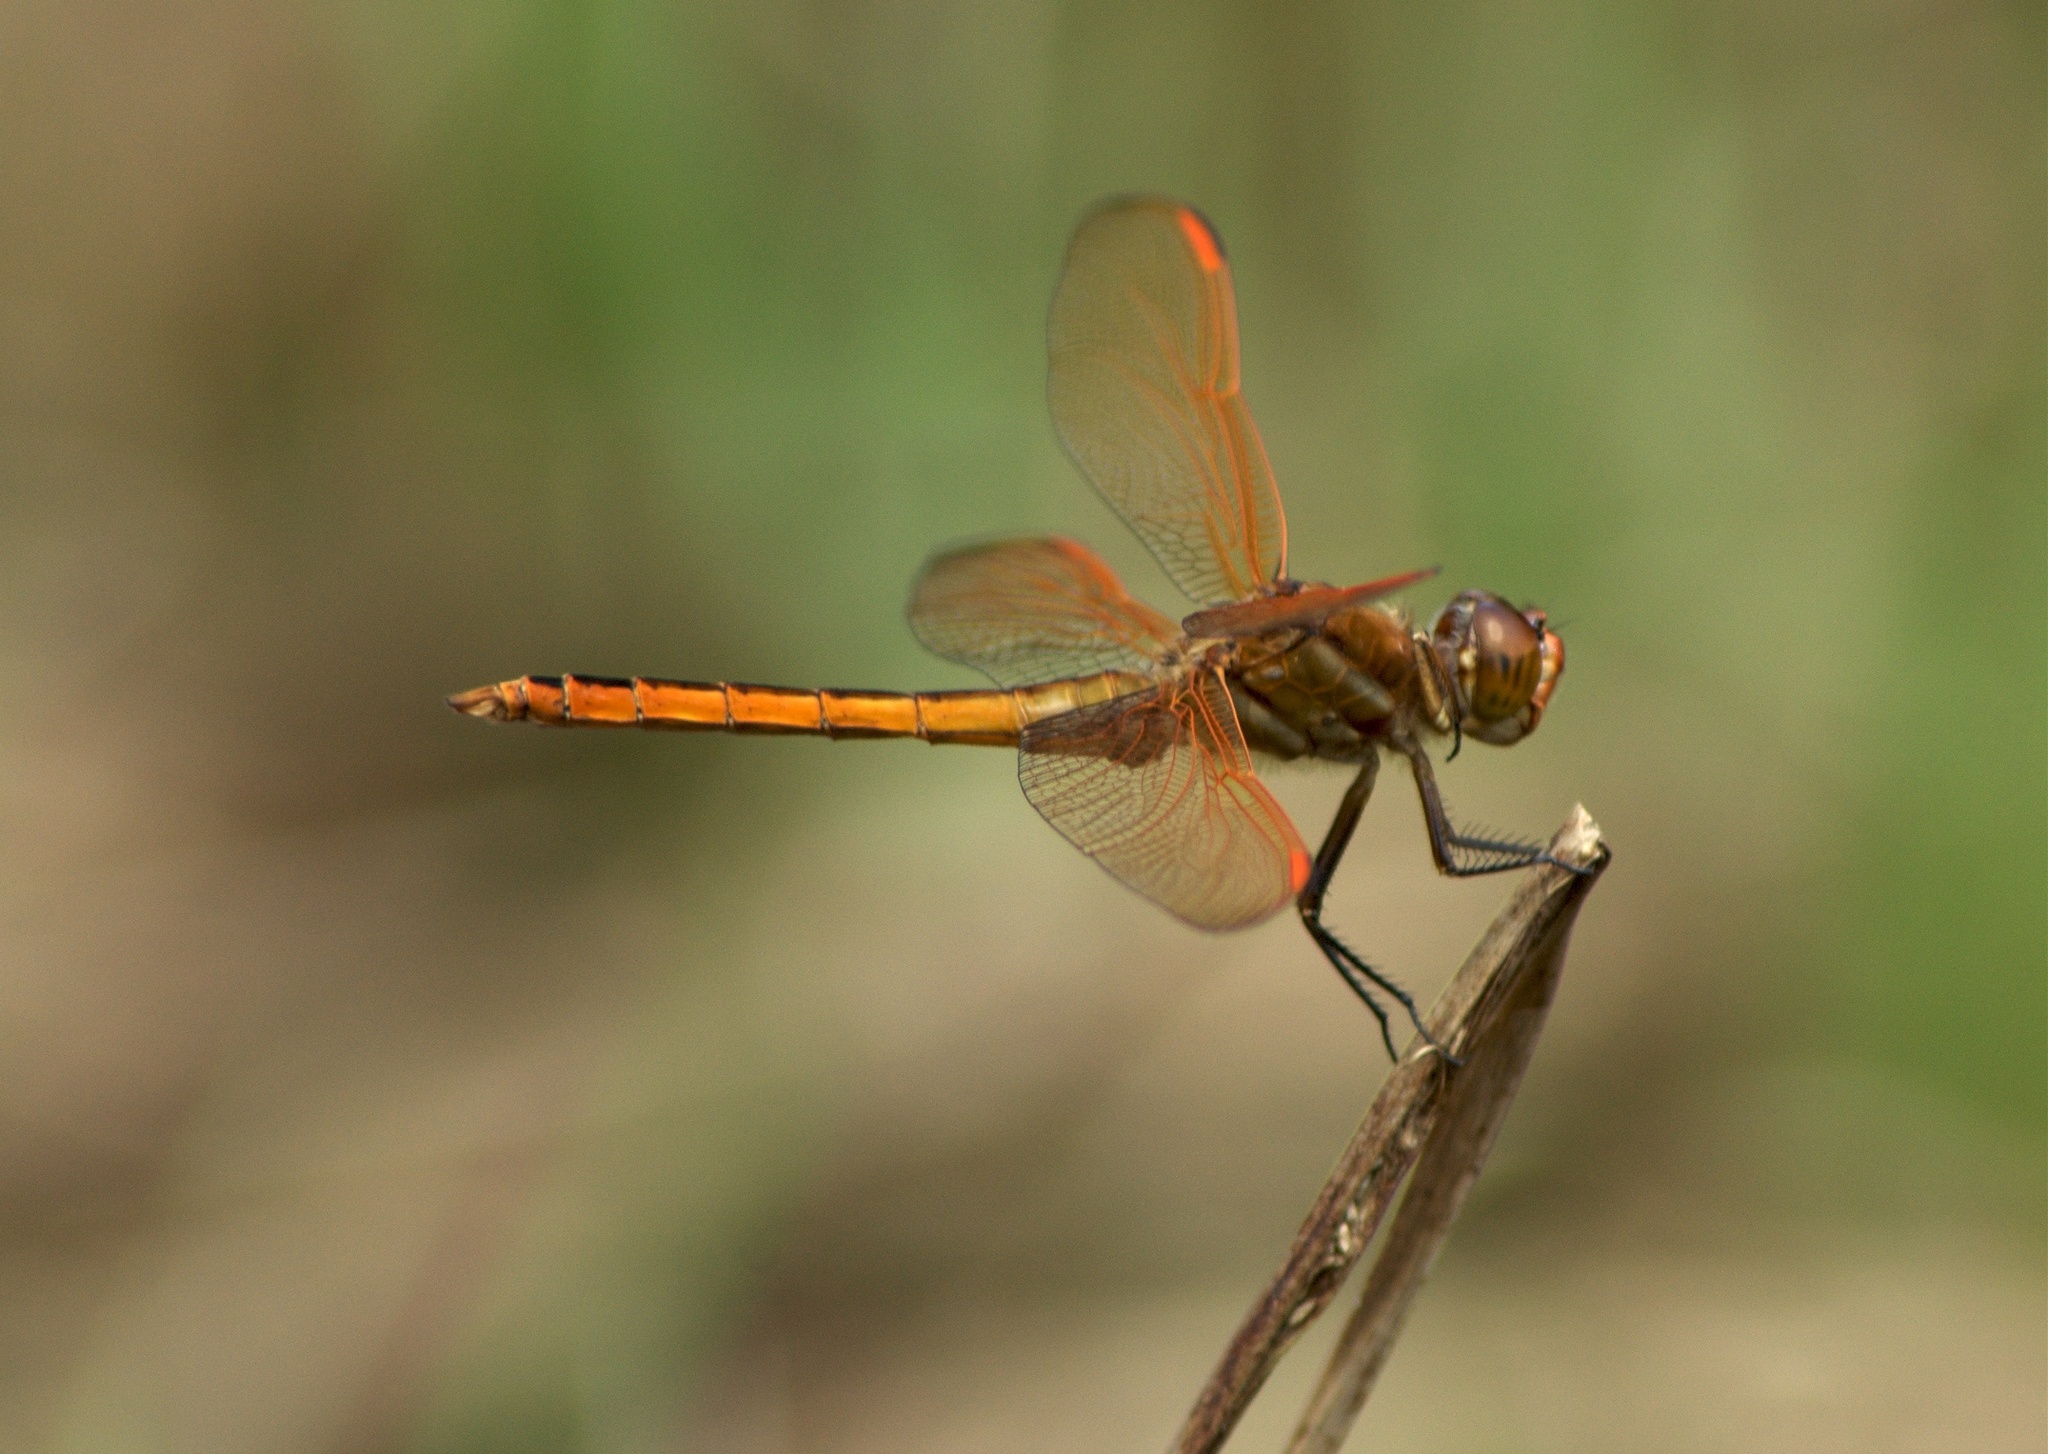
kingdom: Animalia
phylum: Arthropoda
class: Insecta
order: Odonata
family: Libellulidae
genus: Libellula
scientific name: Libellula auripennis
